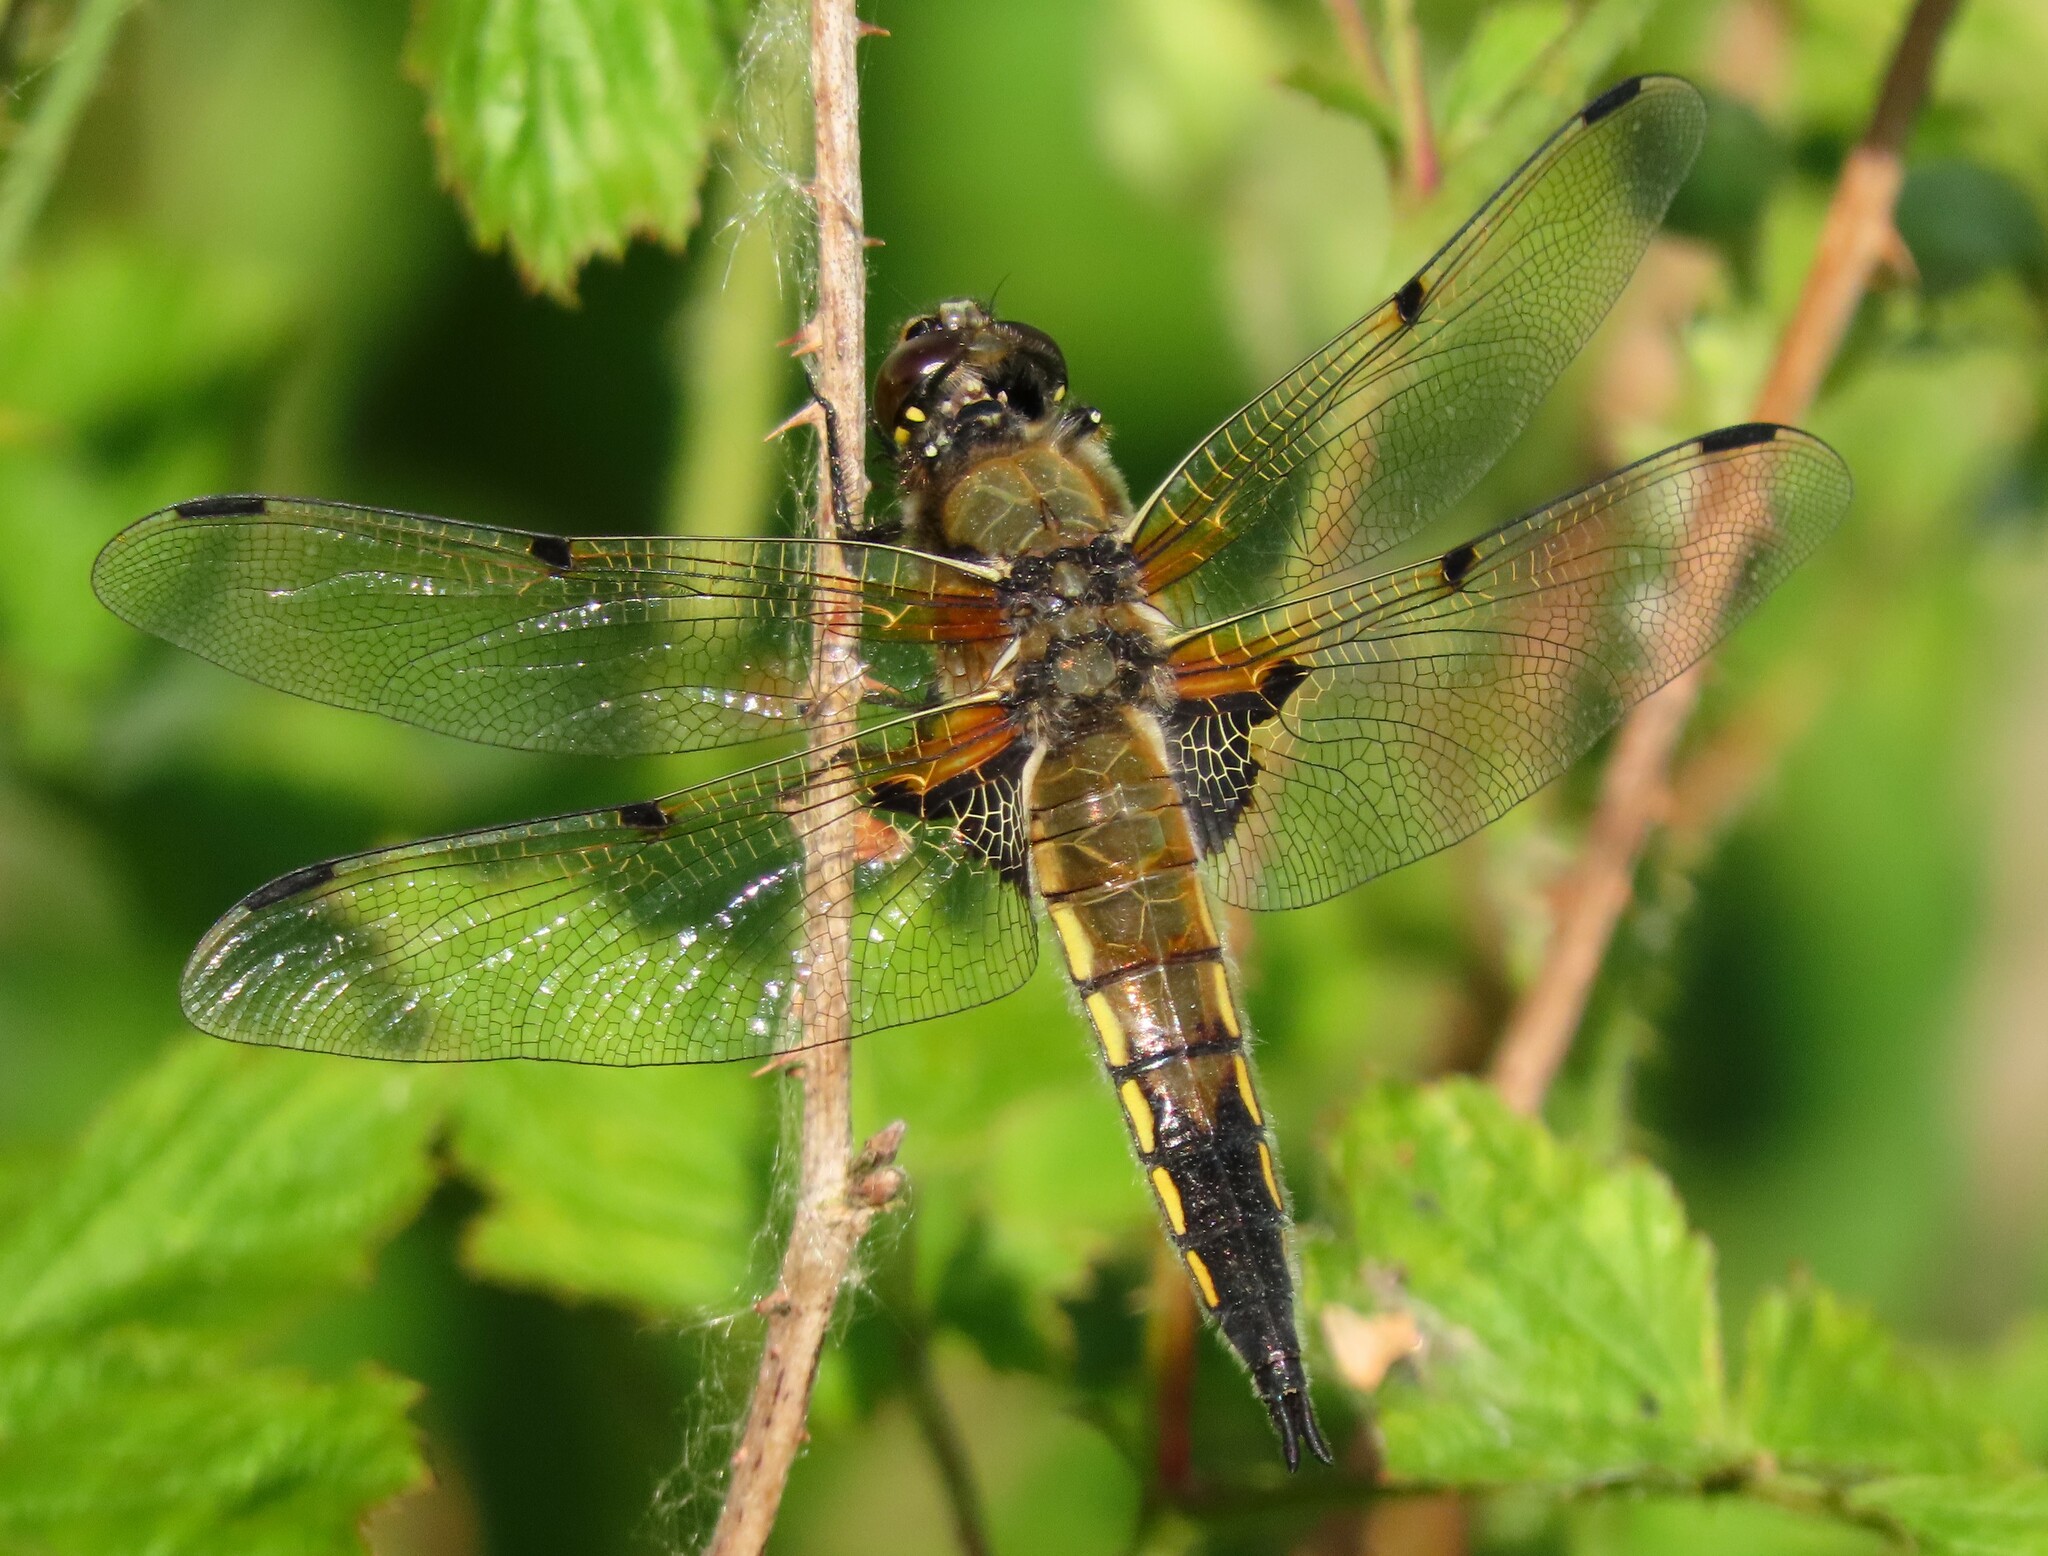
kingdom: Animalia
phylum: Arthropoda
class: Insecta
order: Odonata
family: Libellulidae
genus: Libellula
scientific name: Libellula quadrimaculata
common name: Four-spotted chaser
